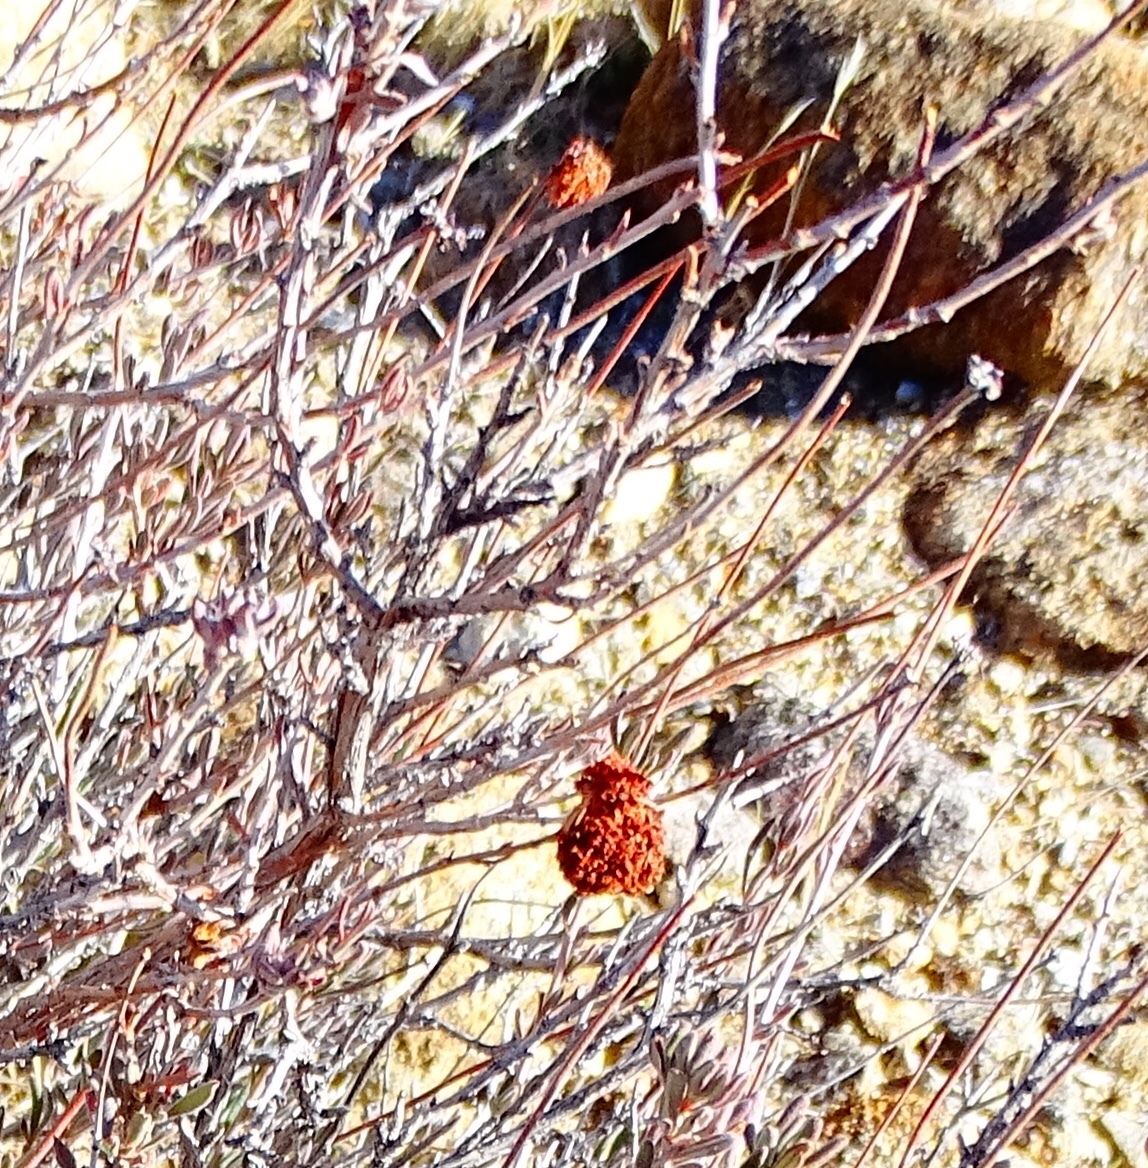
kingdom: Plantae
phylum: Tracheophyta
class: Magnoliopsida
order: Caryophyllales
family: Polygonaceae
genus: Eriogonum
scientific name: Eriogonum fasciculatum
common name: California wild buckwheat
